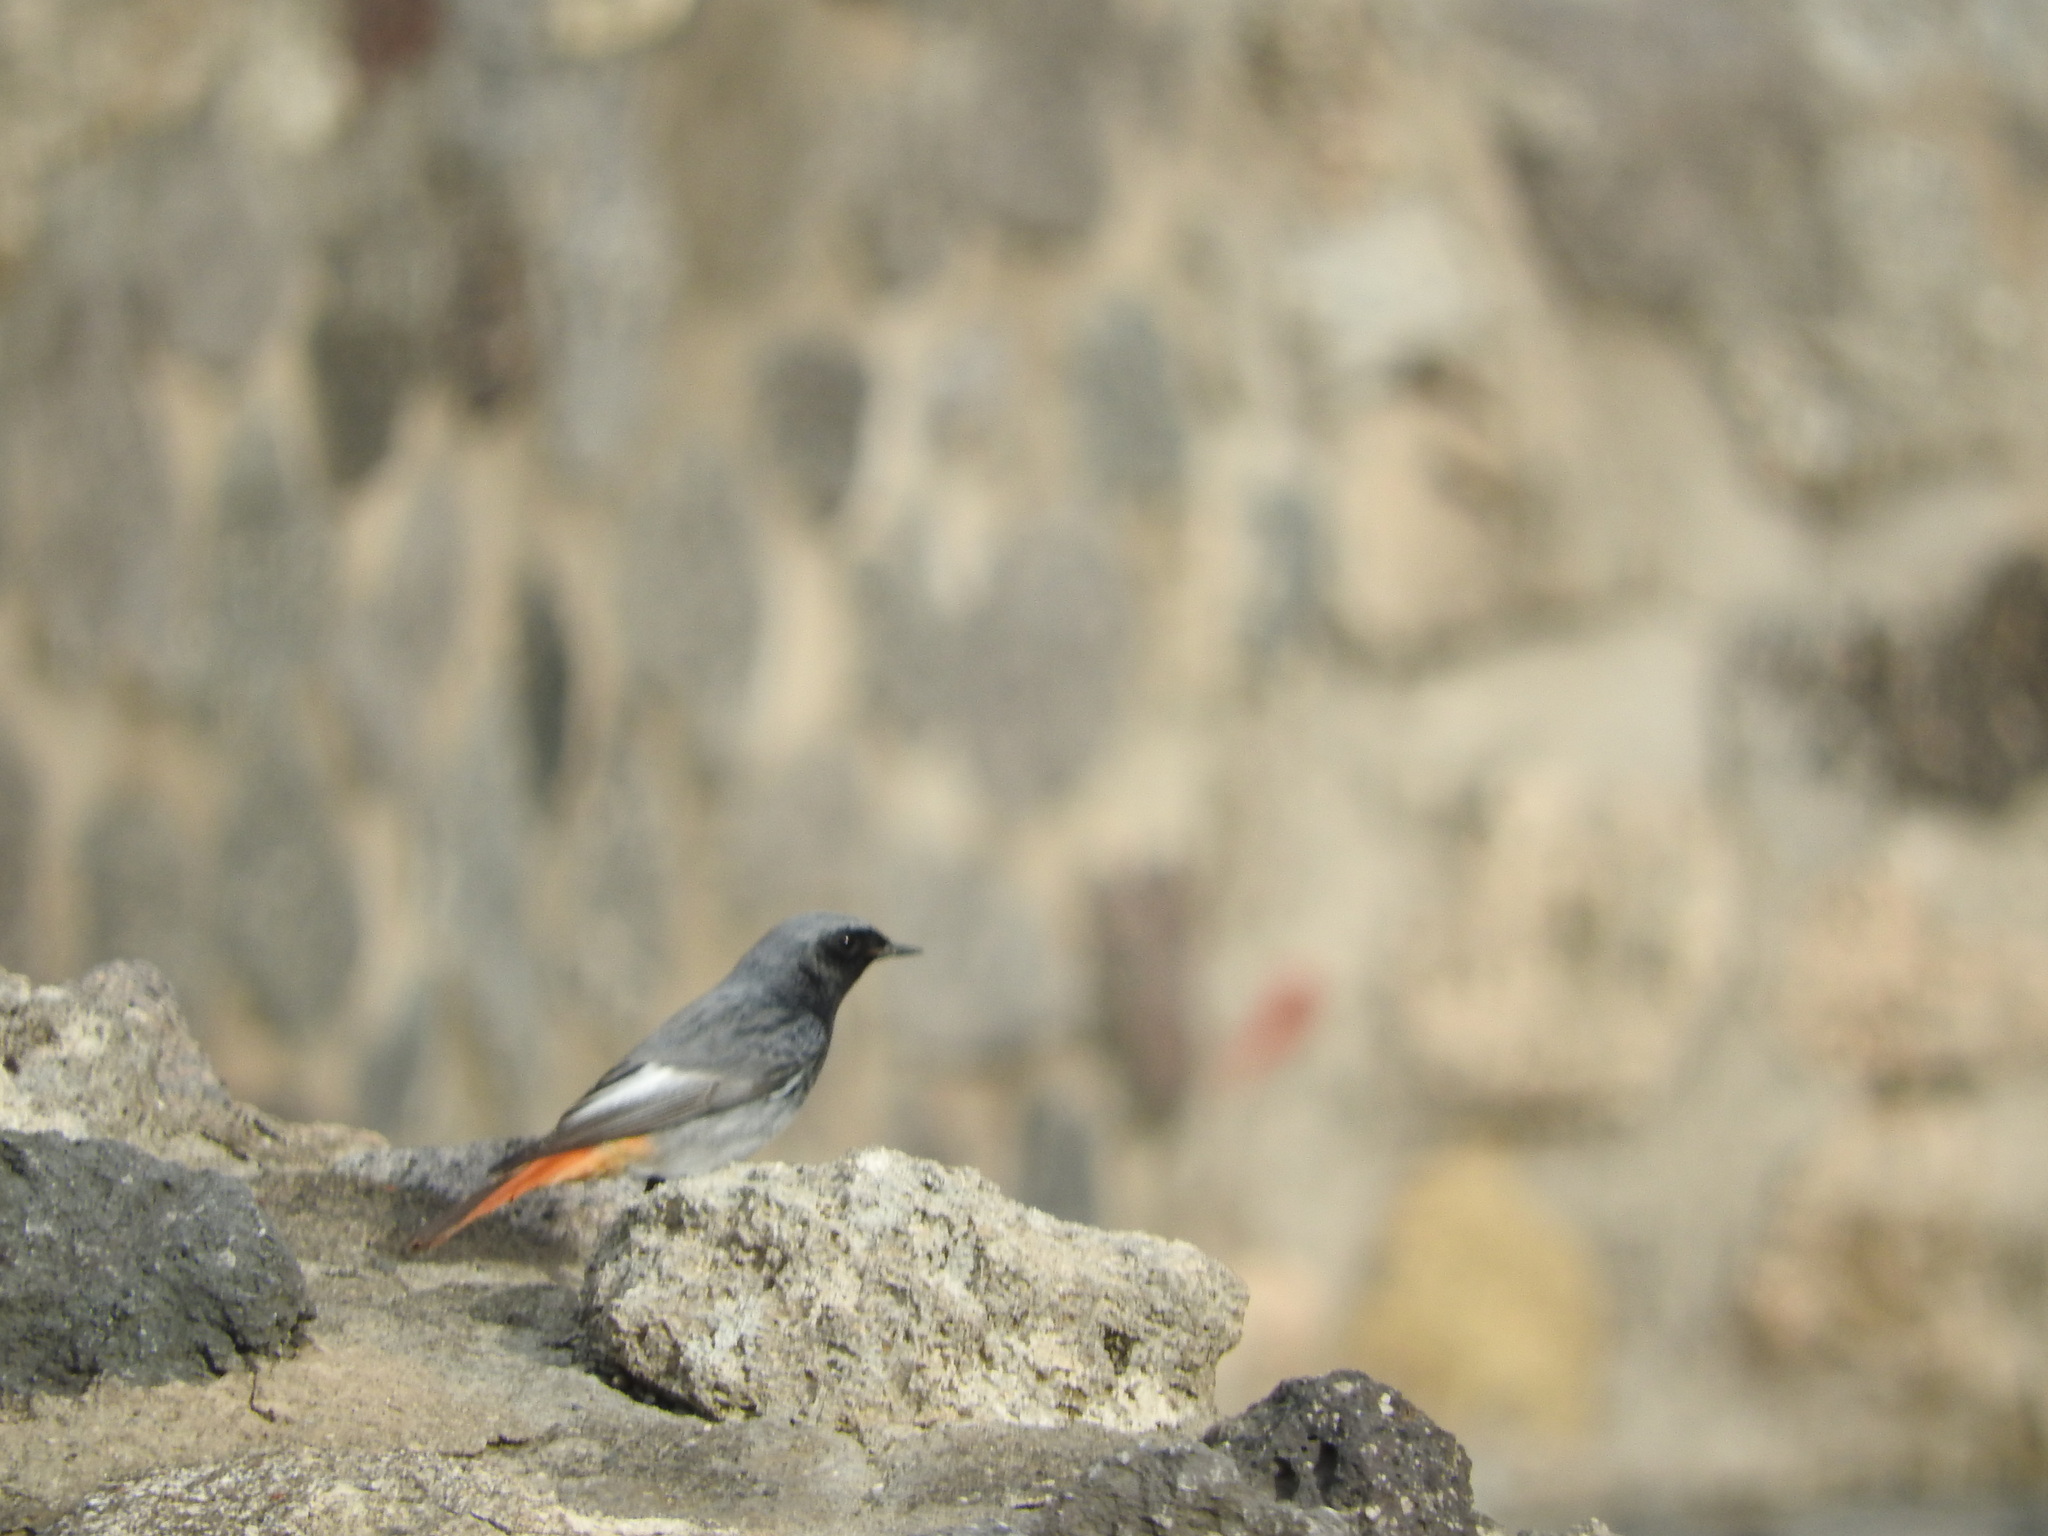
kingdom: Animalia
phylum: Chordata
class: Aves
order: Passeriformes
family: Muscicapidae
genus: Phoenicurus
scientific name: Phoenicurus ochruros
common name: Black redstart
